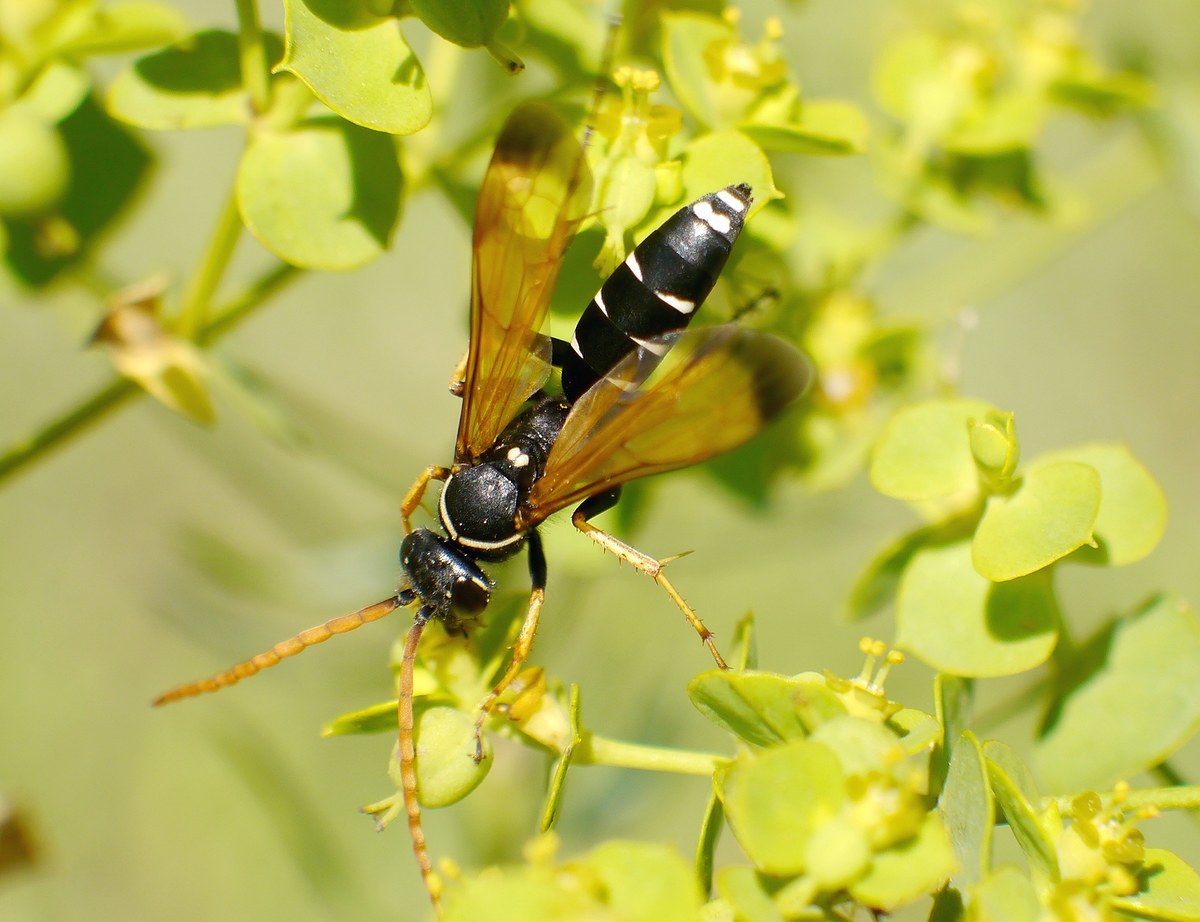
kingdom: Animalia
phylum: Arthropoda
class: Insecta
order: Hymenoptera
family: Pompilidae
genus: Parabatozonus
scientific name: Parabatozonus lacerticida
